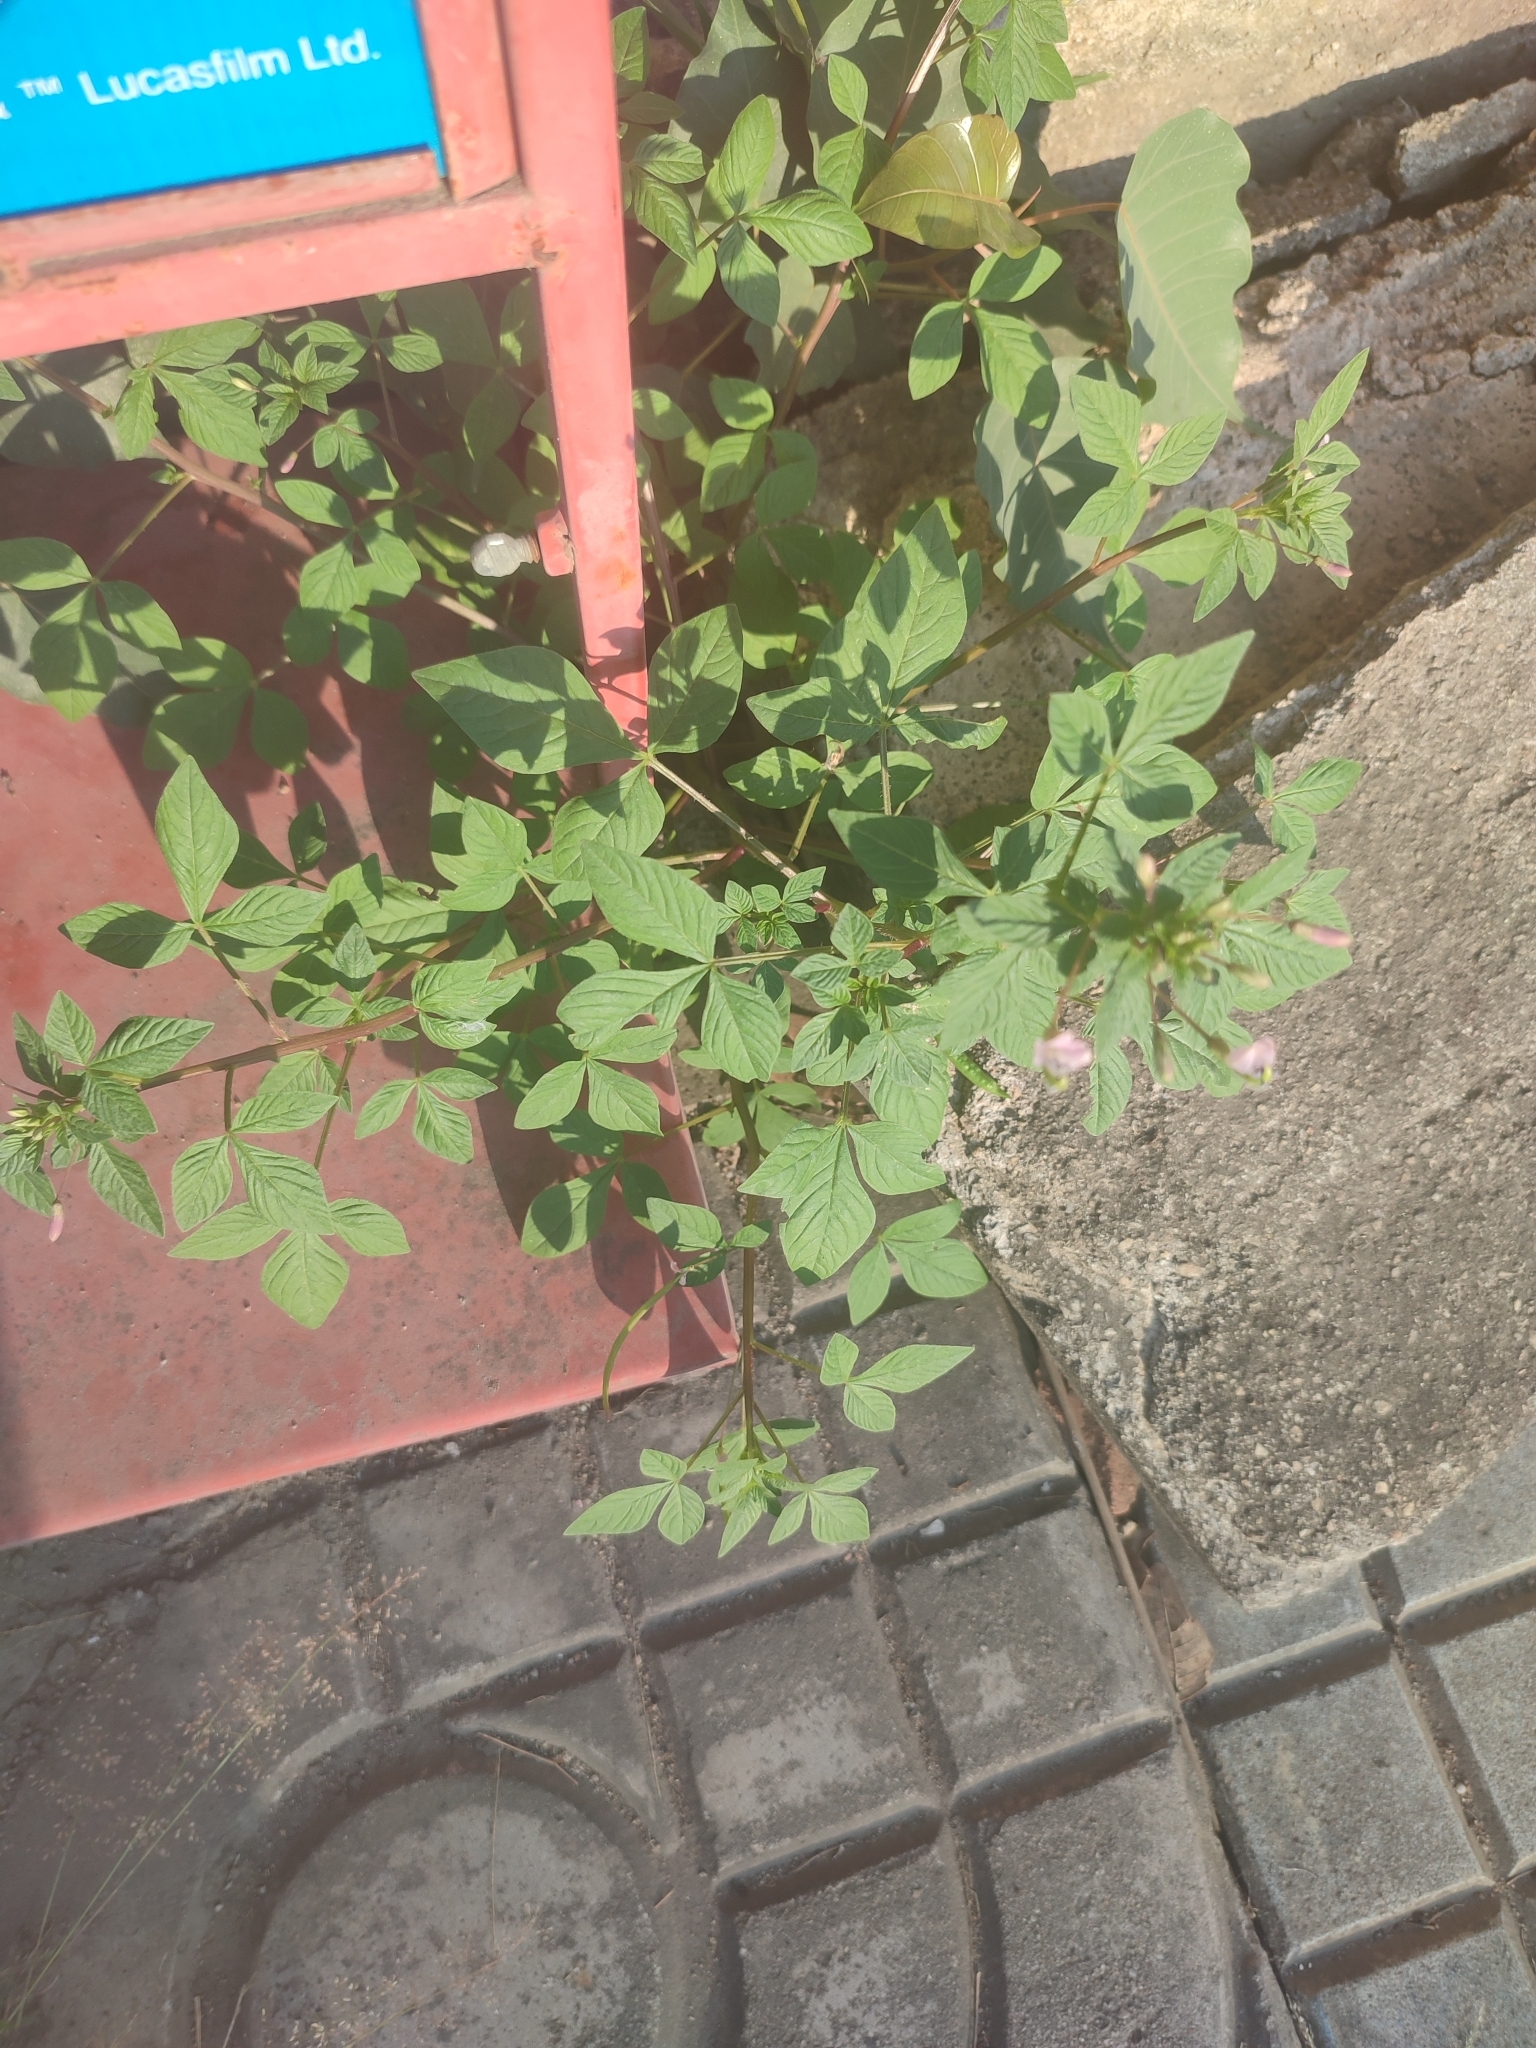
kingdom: Plantae
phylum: Tracheophyta
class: Magnoliopsida
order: Brassicales
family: Cleomaceae
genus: Sieruela
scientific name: Sieruela rutidosperma
